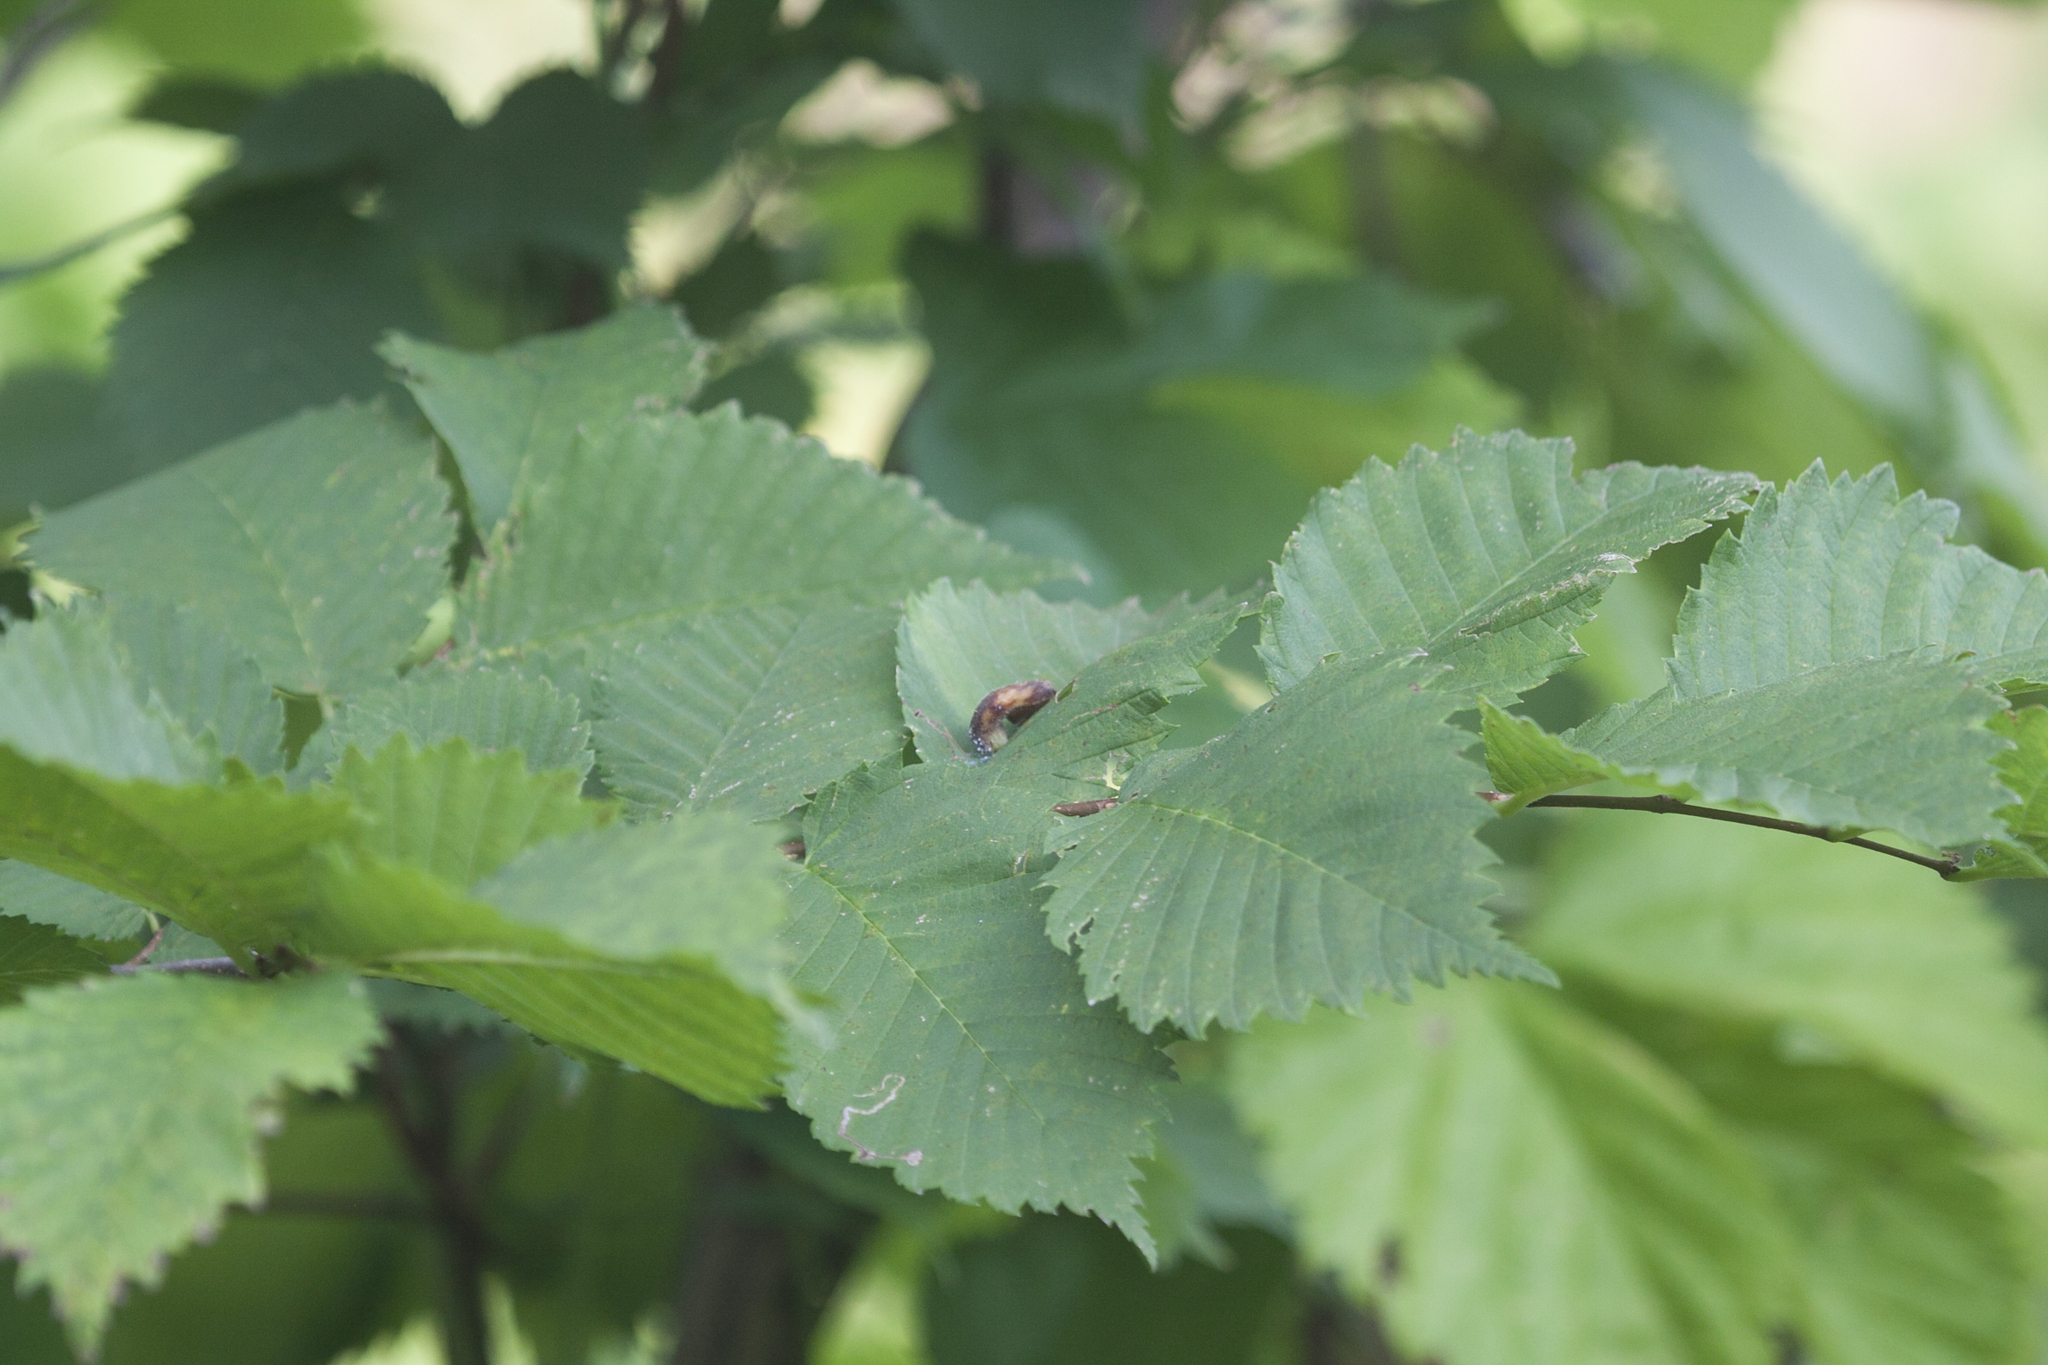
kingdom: Plantae
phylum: Tracheophyta
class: Magnoliopsida
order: Rosales
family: Ulmaceae
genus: Ulmus
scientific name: Ulmus laevis
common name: European white-elm
